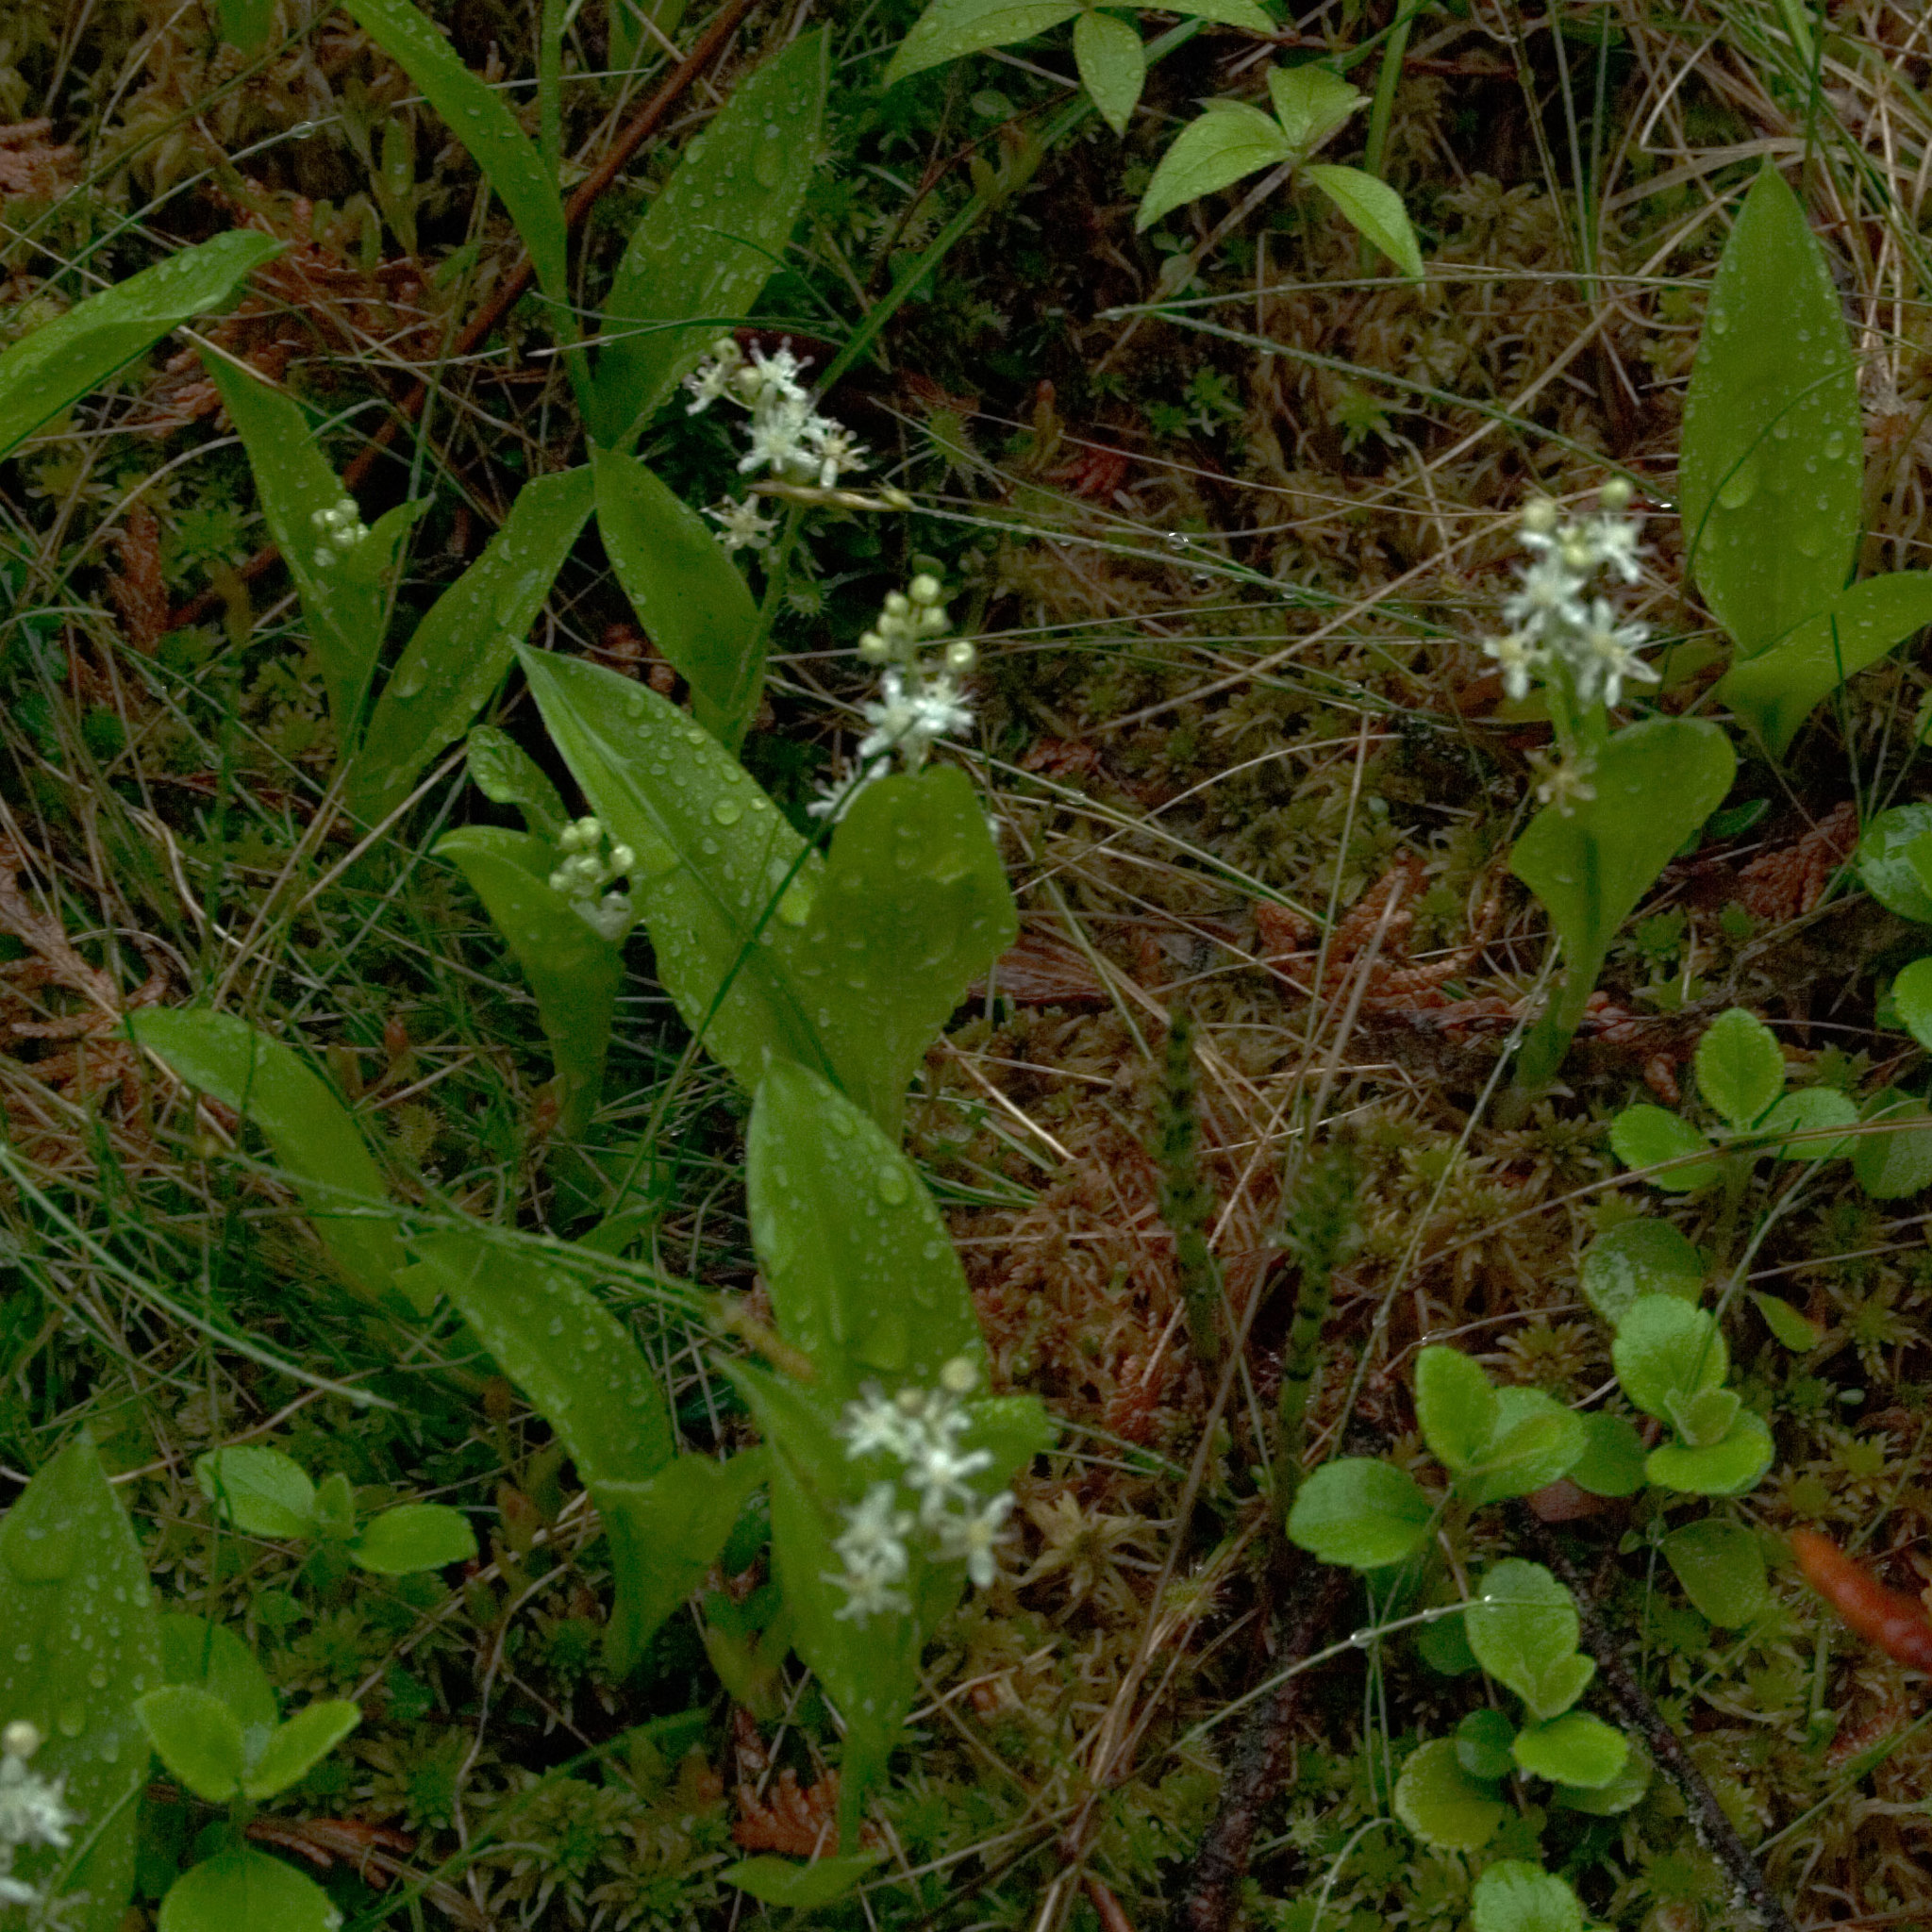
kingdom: Plantae
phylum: Tracheophyta
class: Liliopsida
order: Asparagales
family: Asparagaceae
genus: Maianthemum
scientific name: Maianthemum trifolium
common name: Swamp false solomon's seal
